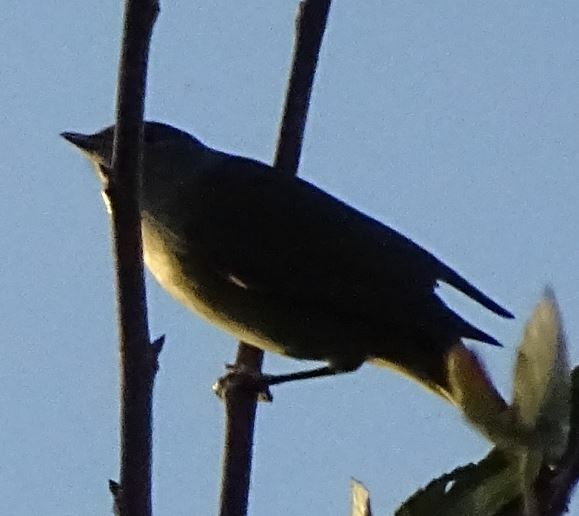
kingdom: Animalia
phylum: Chordata
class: Aves
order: Passeriformes
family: Sylviidae
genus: Sylvia
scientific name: Sylvia atricapilla
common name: Eurasian blackcap
